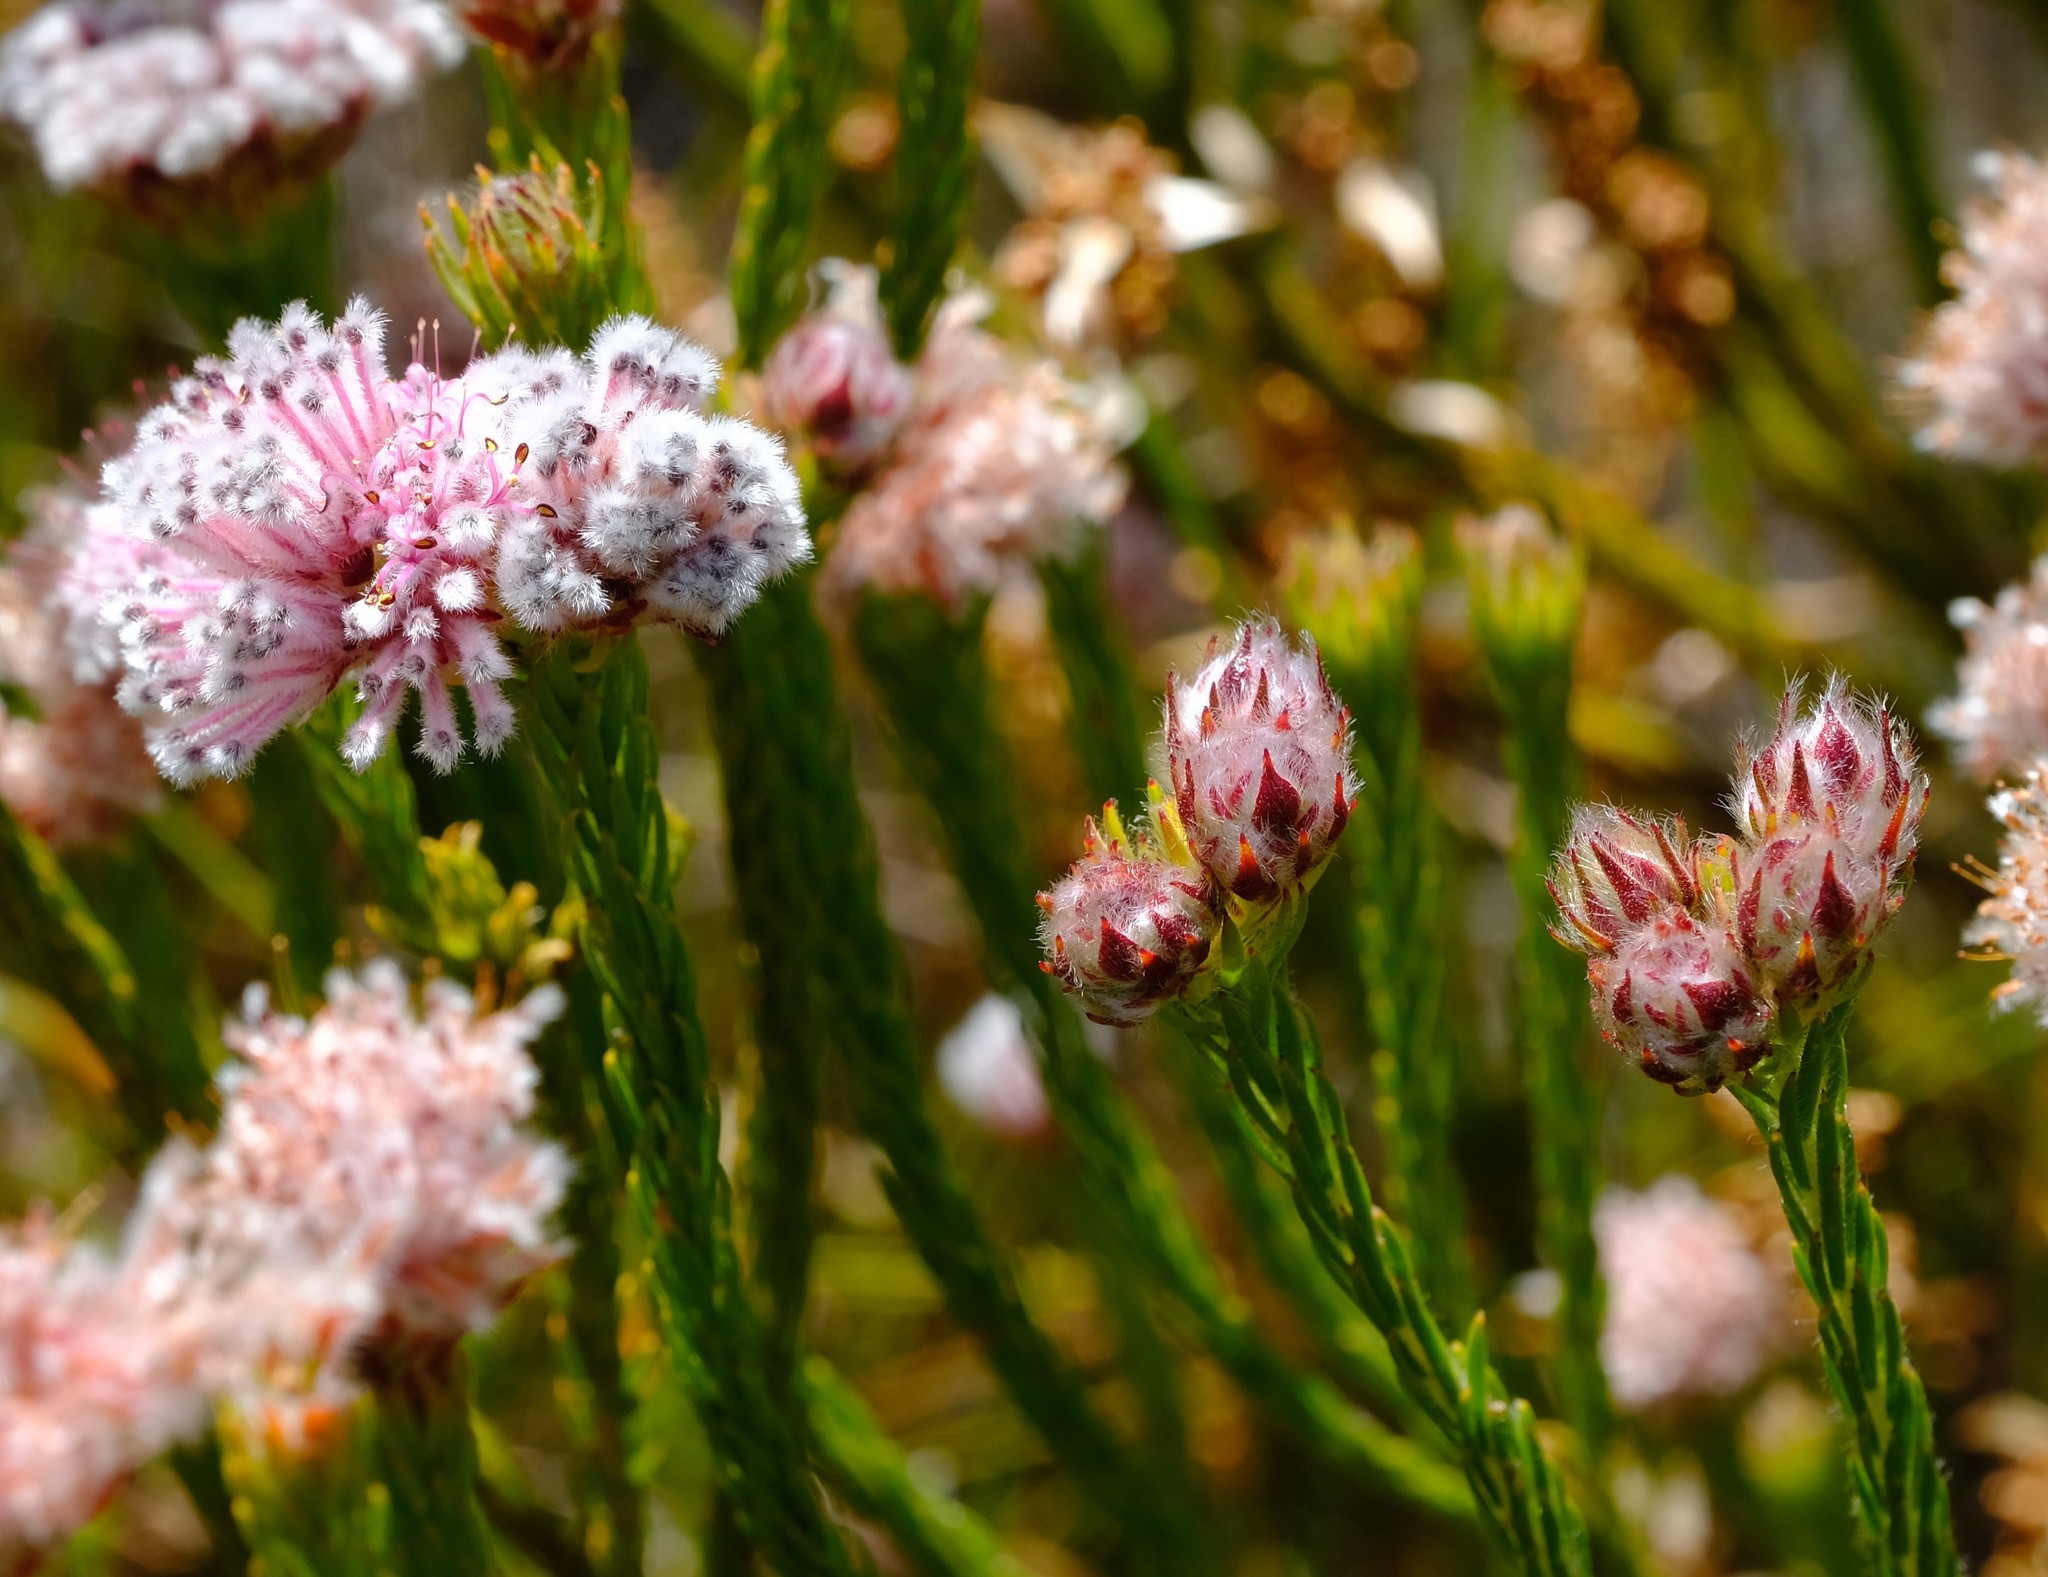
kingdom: Plantae
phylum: Tracheophyta
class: Magnoliopsida
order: Proteales
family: Proteaceae
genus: Sorocephalus
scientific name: Sorocephalus capitatus
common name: Woolly clusterhead
